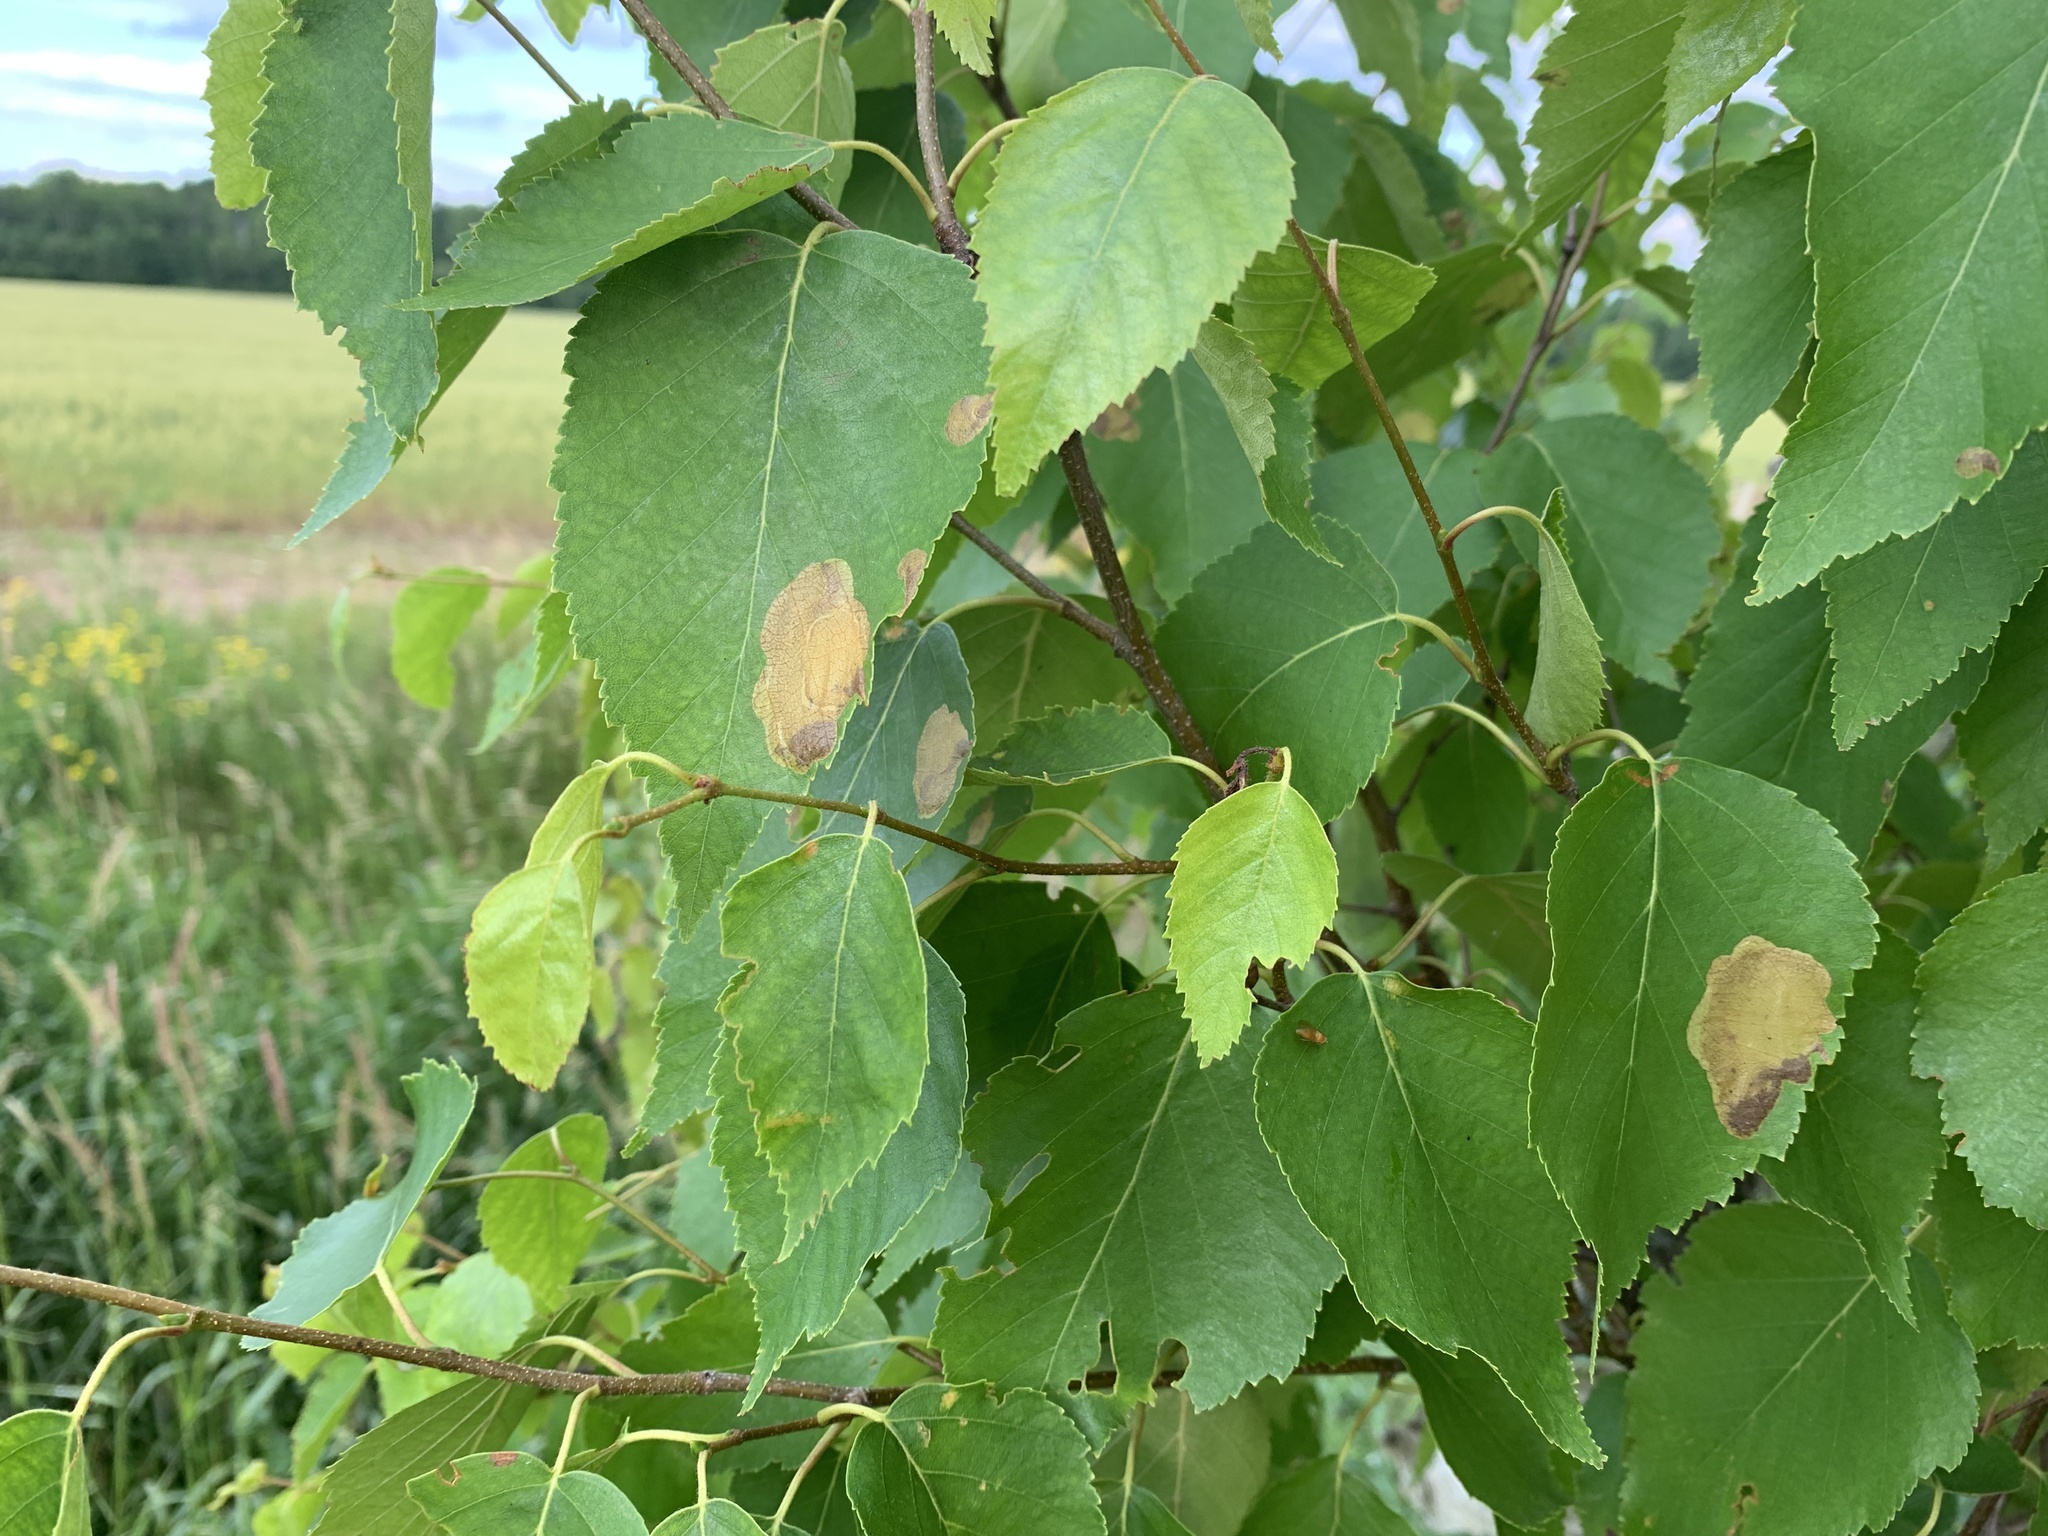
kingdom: Animalia
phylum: Arthropoda
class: Insecta
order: Hymenoptera
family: Tenthredinidae
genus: Fenusella
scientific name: Fenusella nana
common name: Early birch leaf edgeminer
